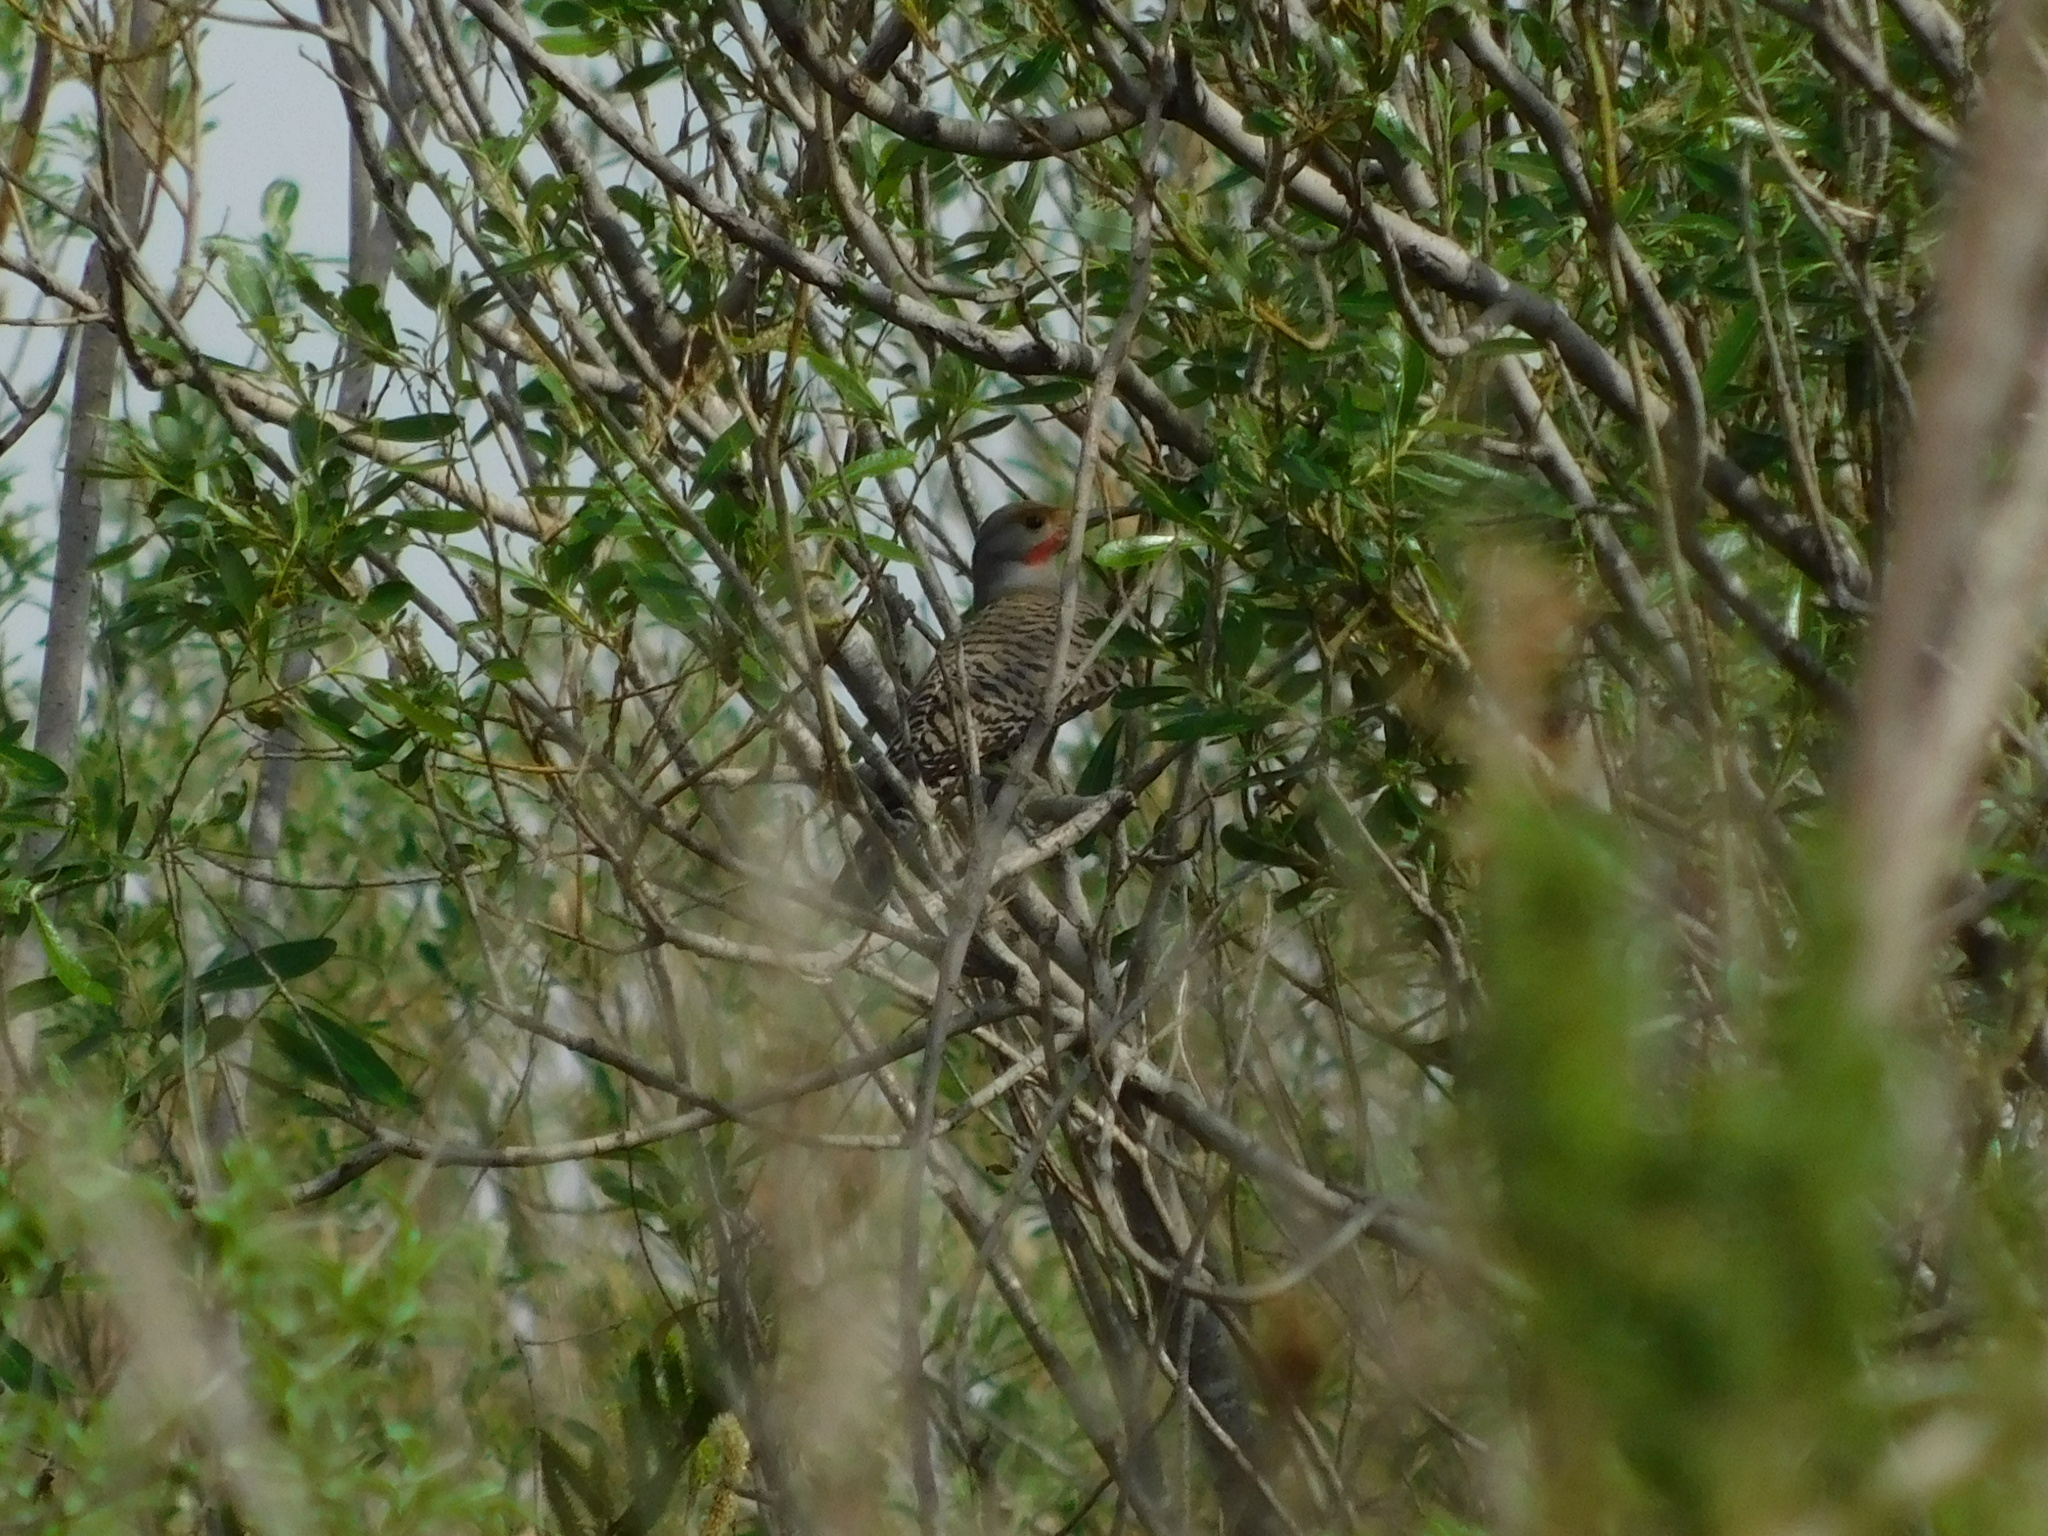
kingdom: Animalia
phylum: Chordata
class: Aves
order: Piciformes
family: Picidae
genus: Colaptes
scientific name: Colaptes auratus
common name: Northern flicker
